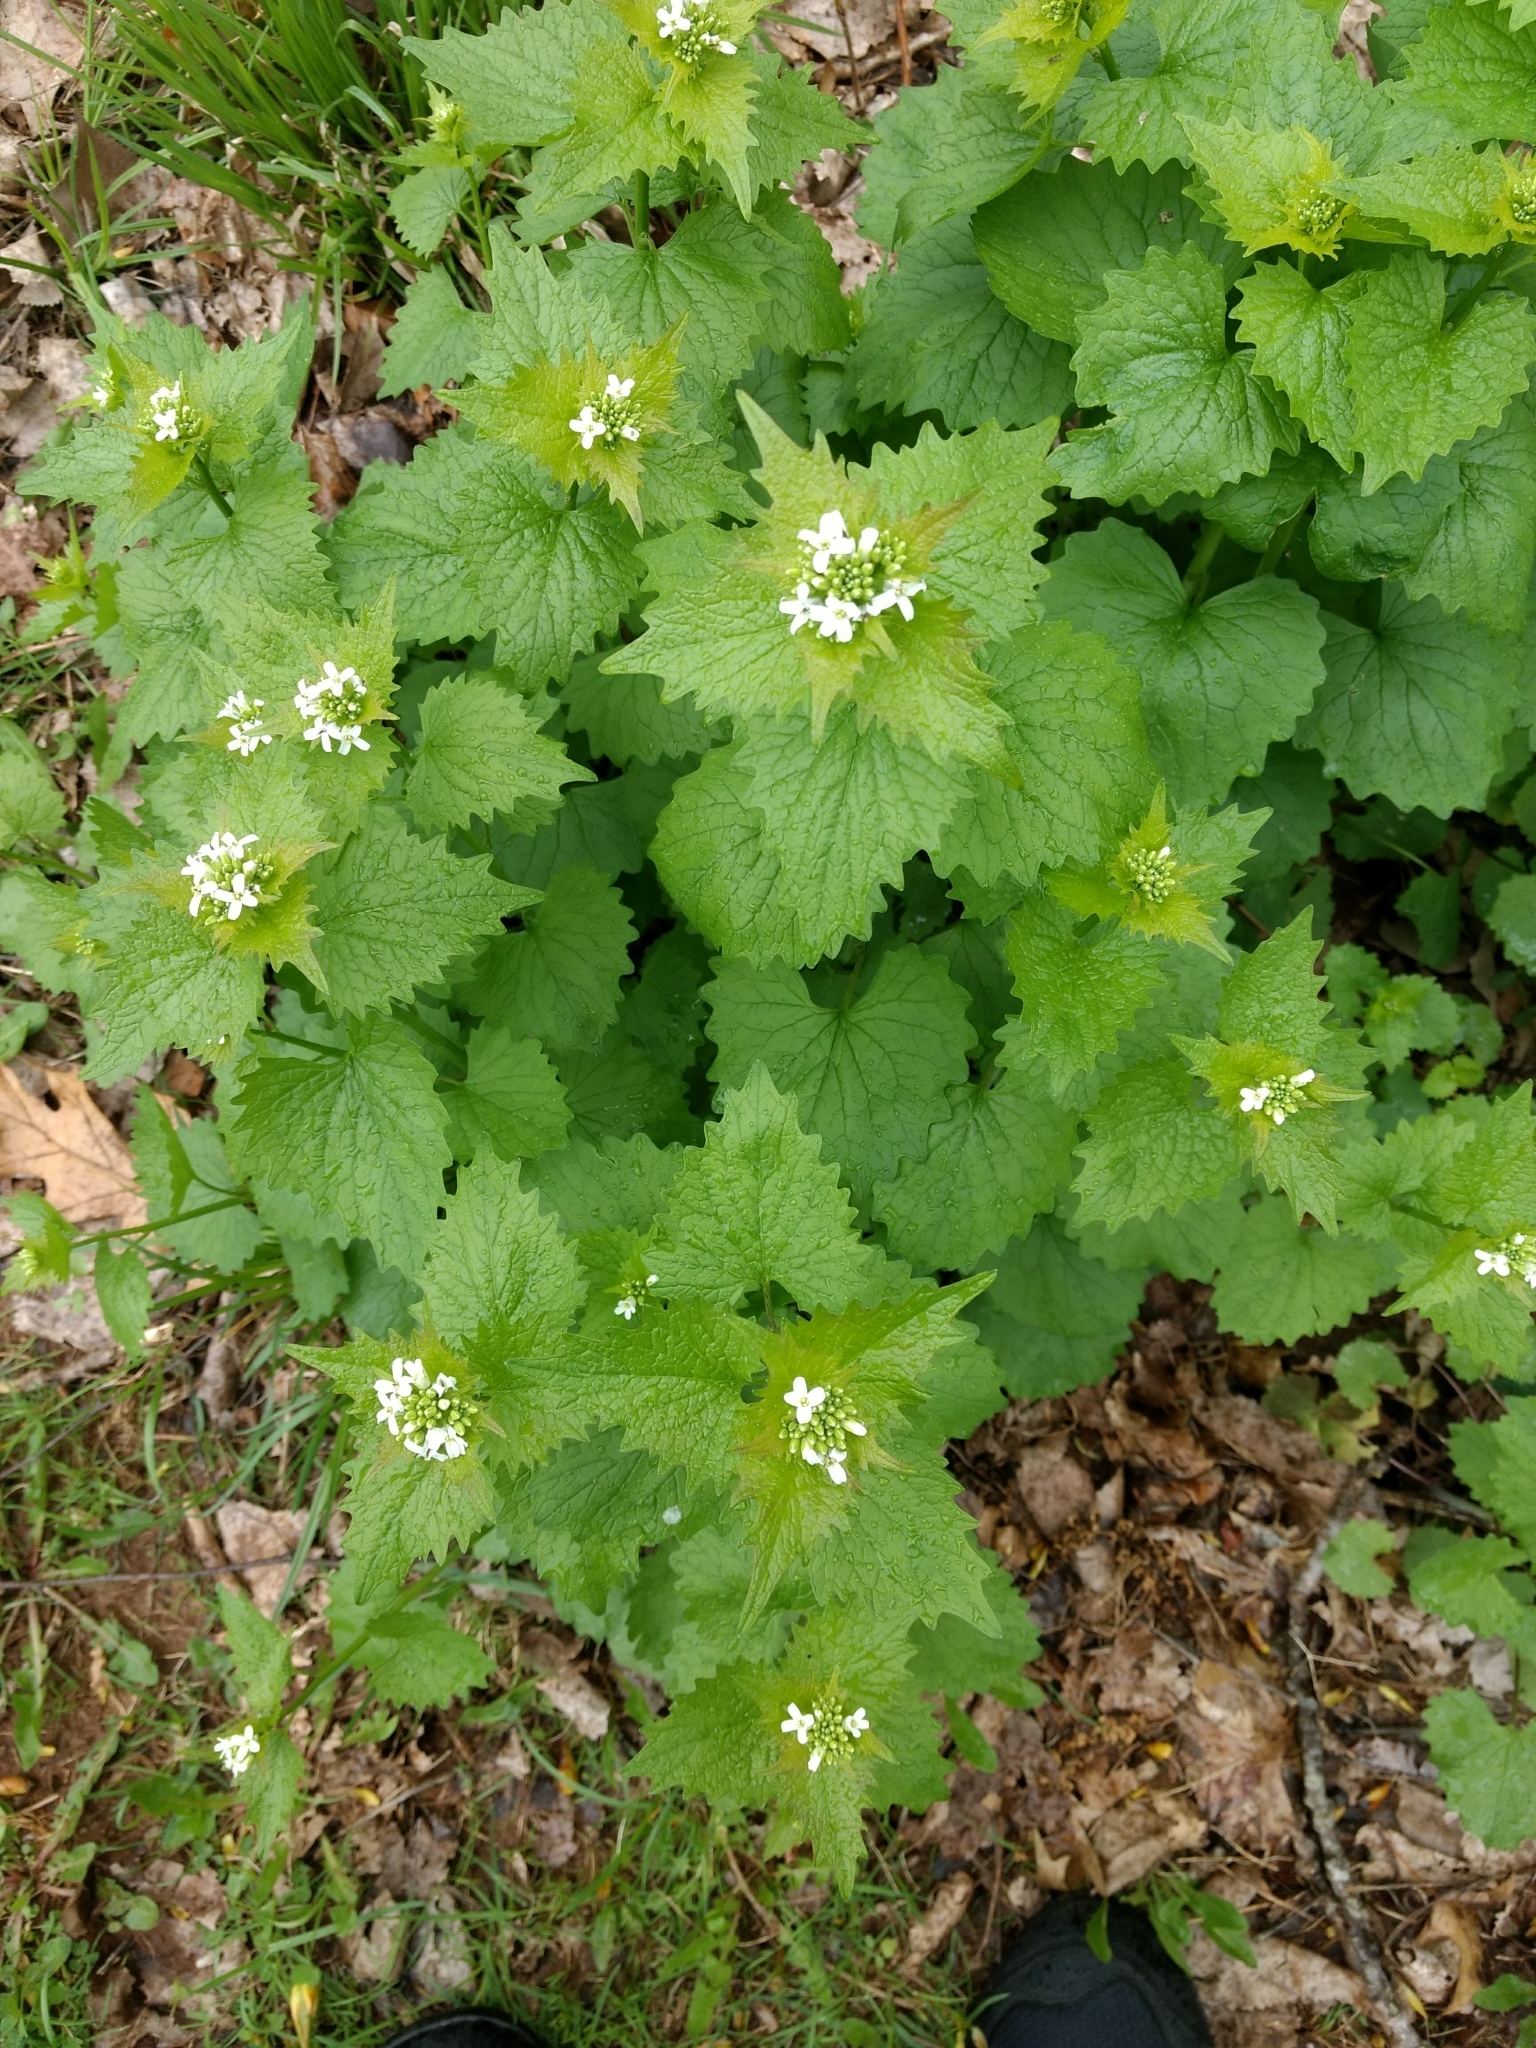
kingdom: Plantae
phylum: Tracheophyta
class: Magnoliopsida
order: Brassicales
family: Brassicaceae
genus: Alliaria
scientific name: Alliaria petiolata
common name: Garlic mustard
